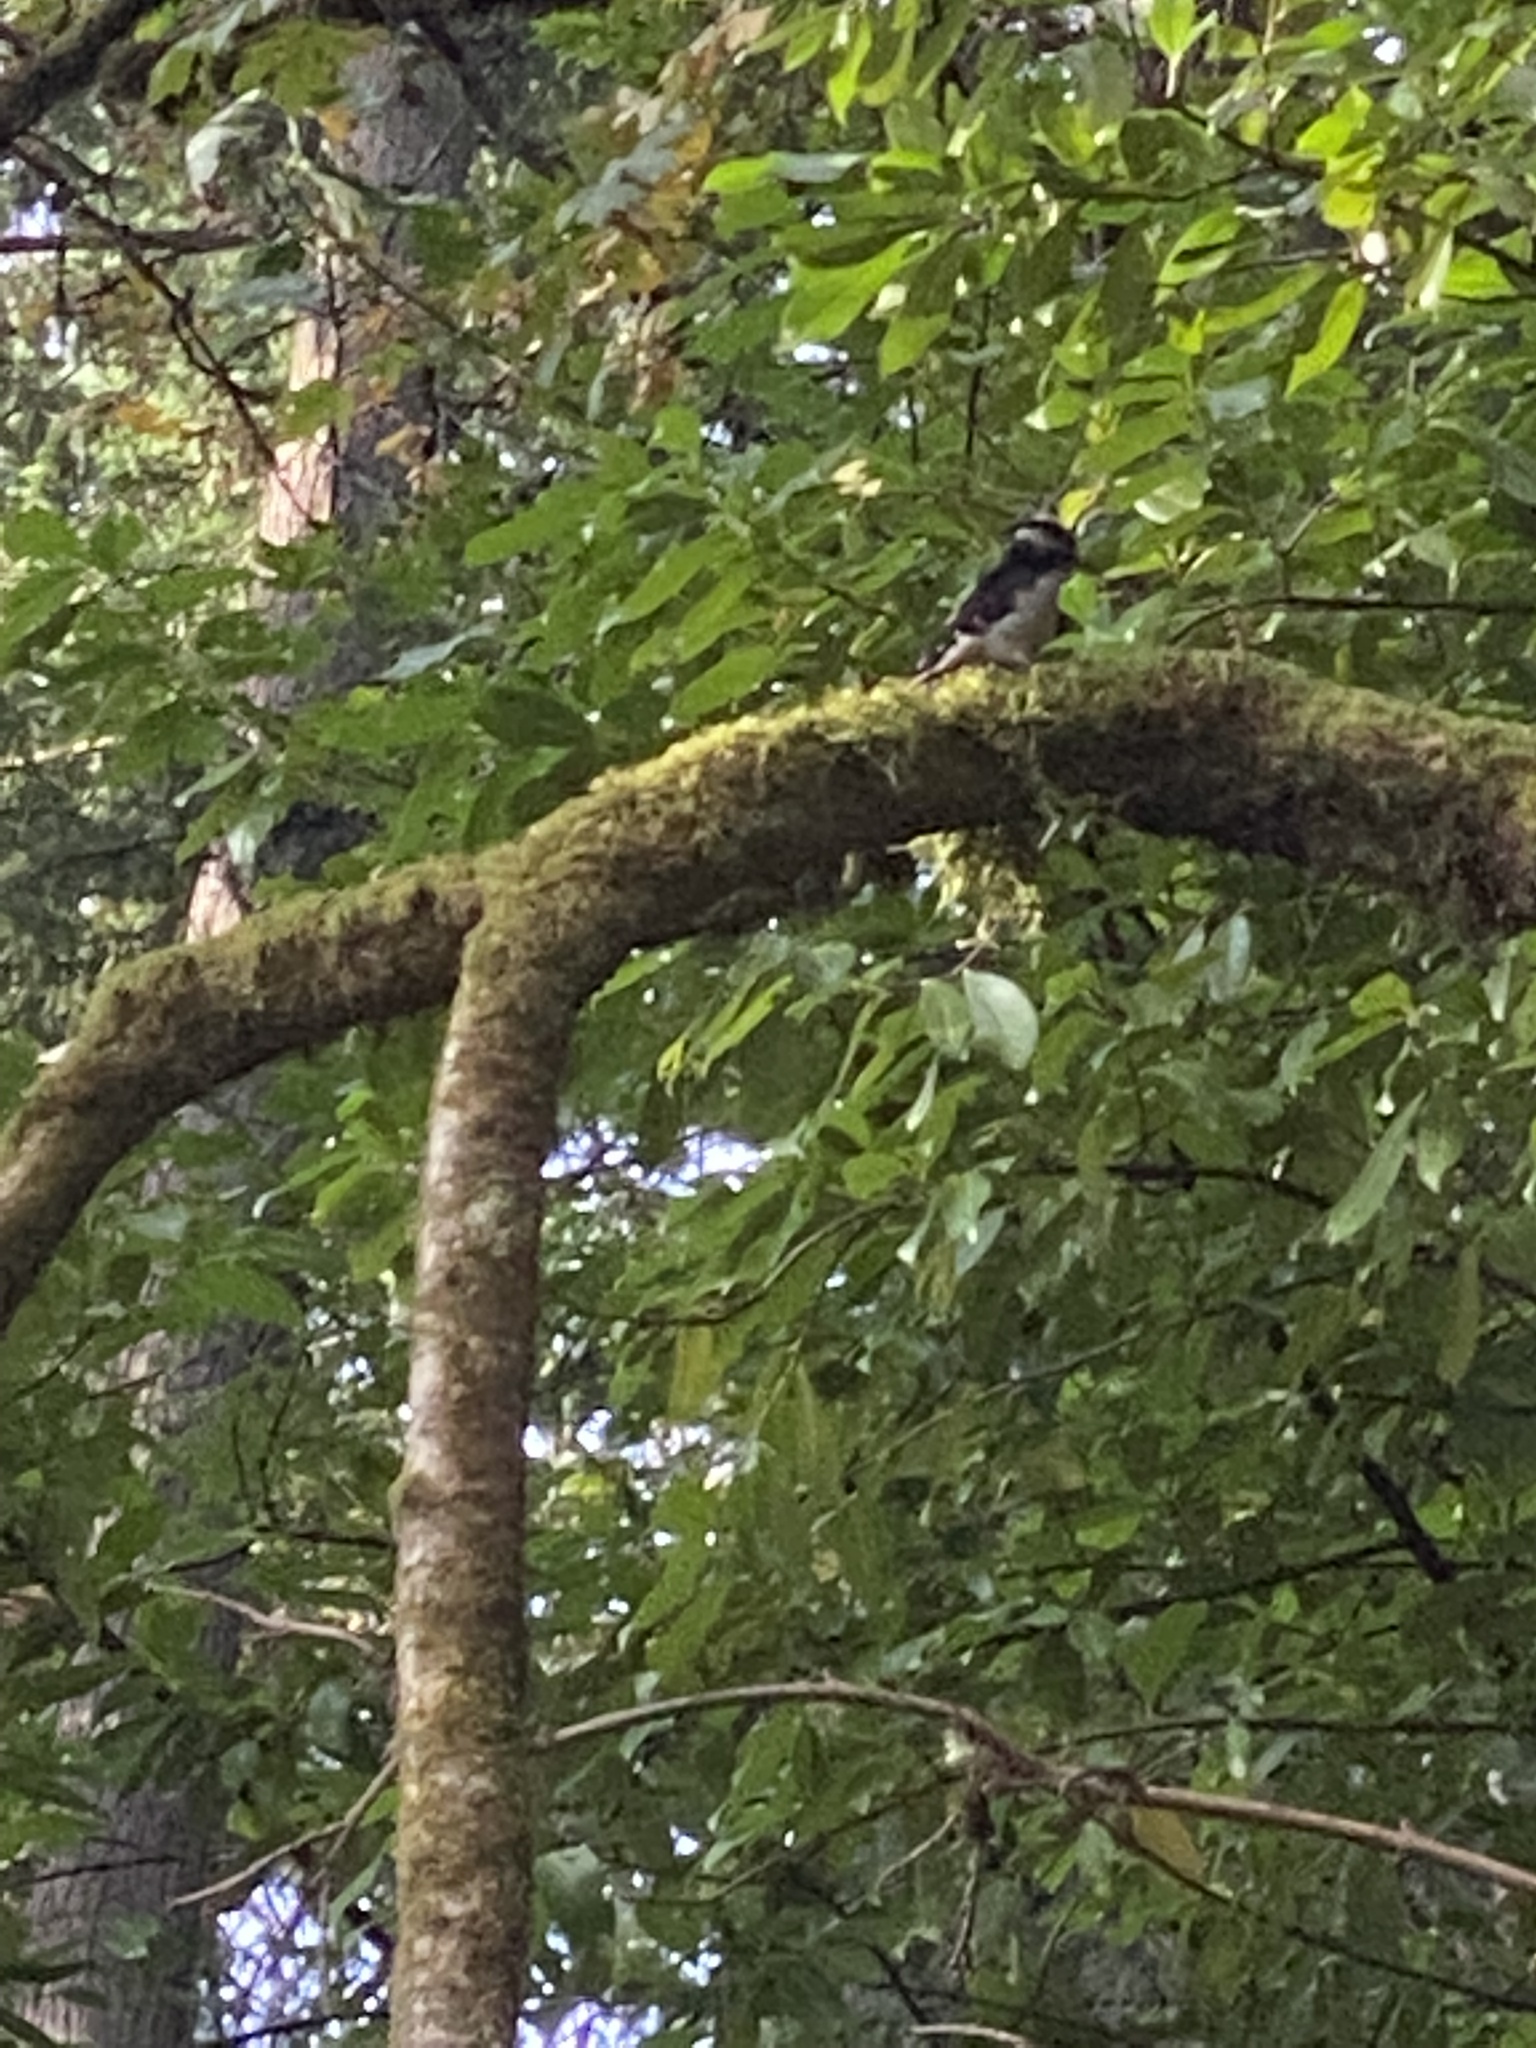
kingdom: Animalia
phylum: Chordata
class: Aves
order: Piciformes
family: Picidae
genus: Leuconotopicus
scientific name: Leuconotopicus villosus
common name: Hairy woodpecker
